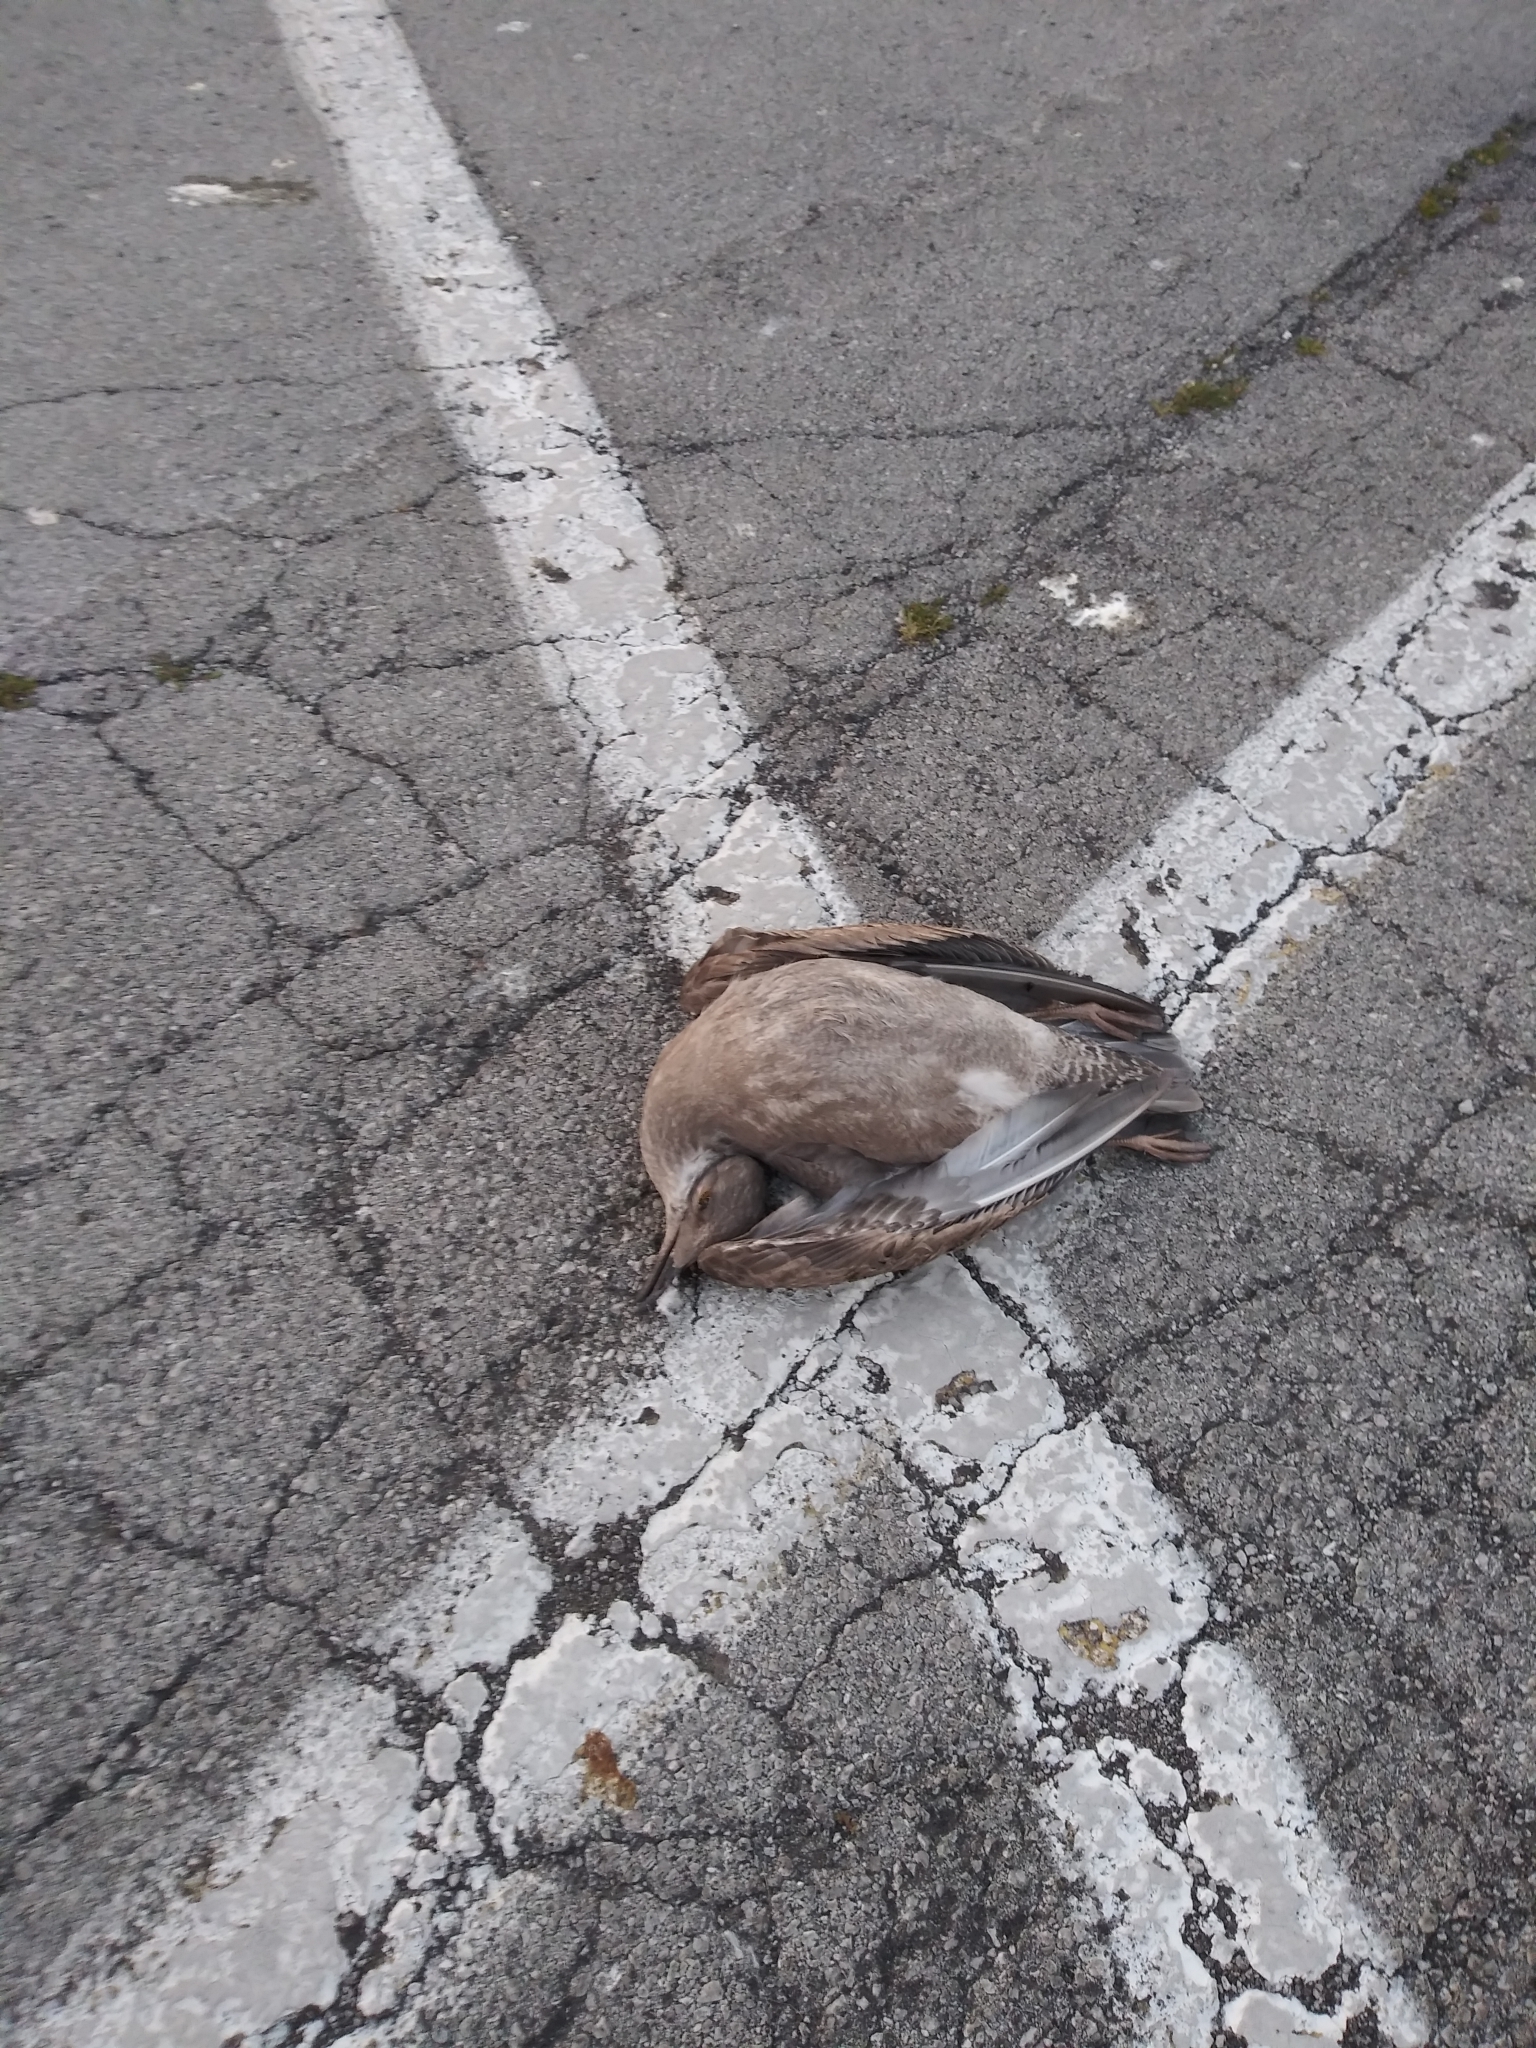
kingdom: Animalia
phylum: Chordata
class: Aves
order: Charadriiformes
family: Laridae
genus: Larus
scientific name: Larus argentatus
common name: Herring gull
